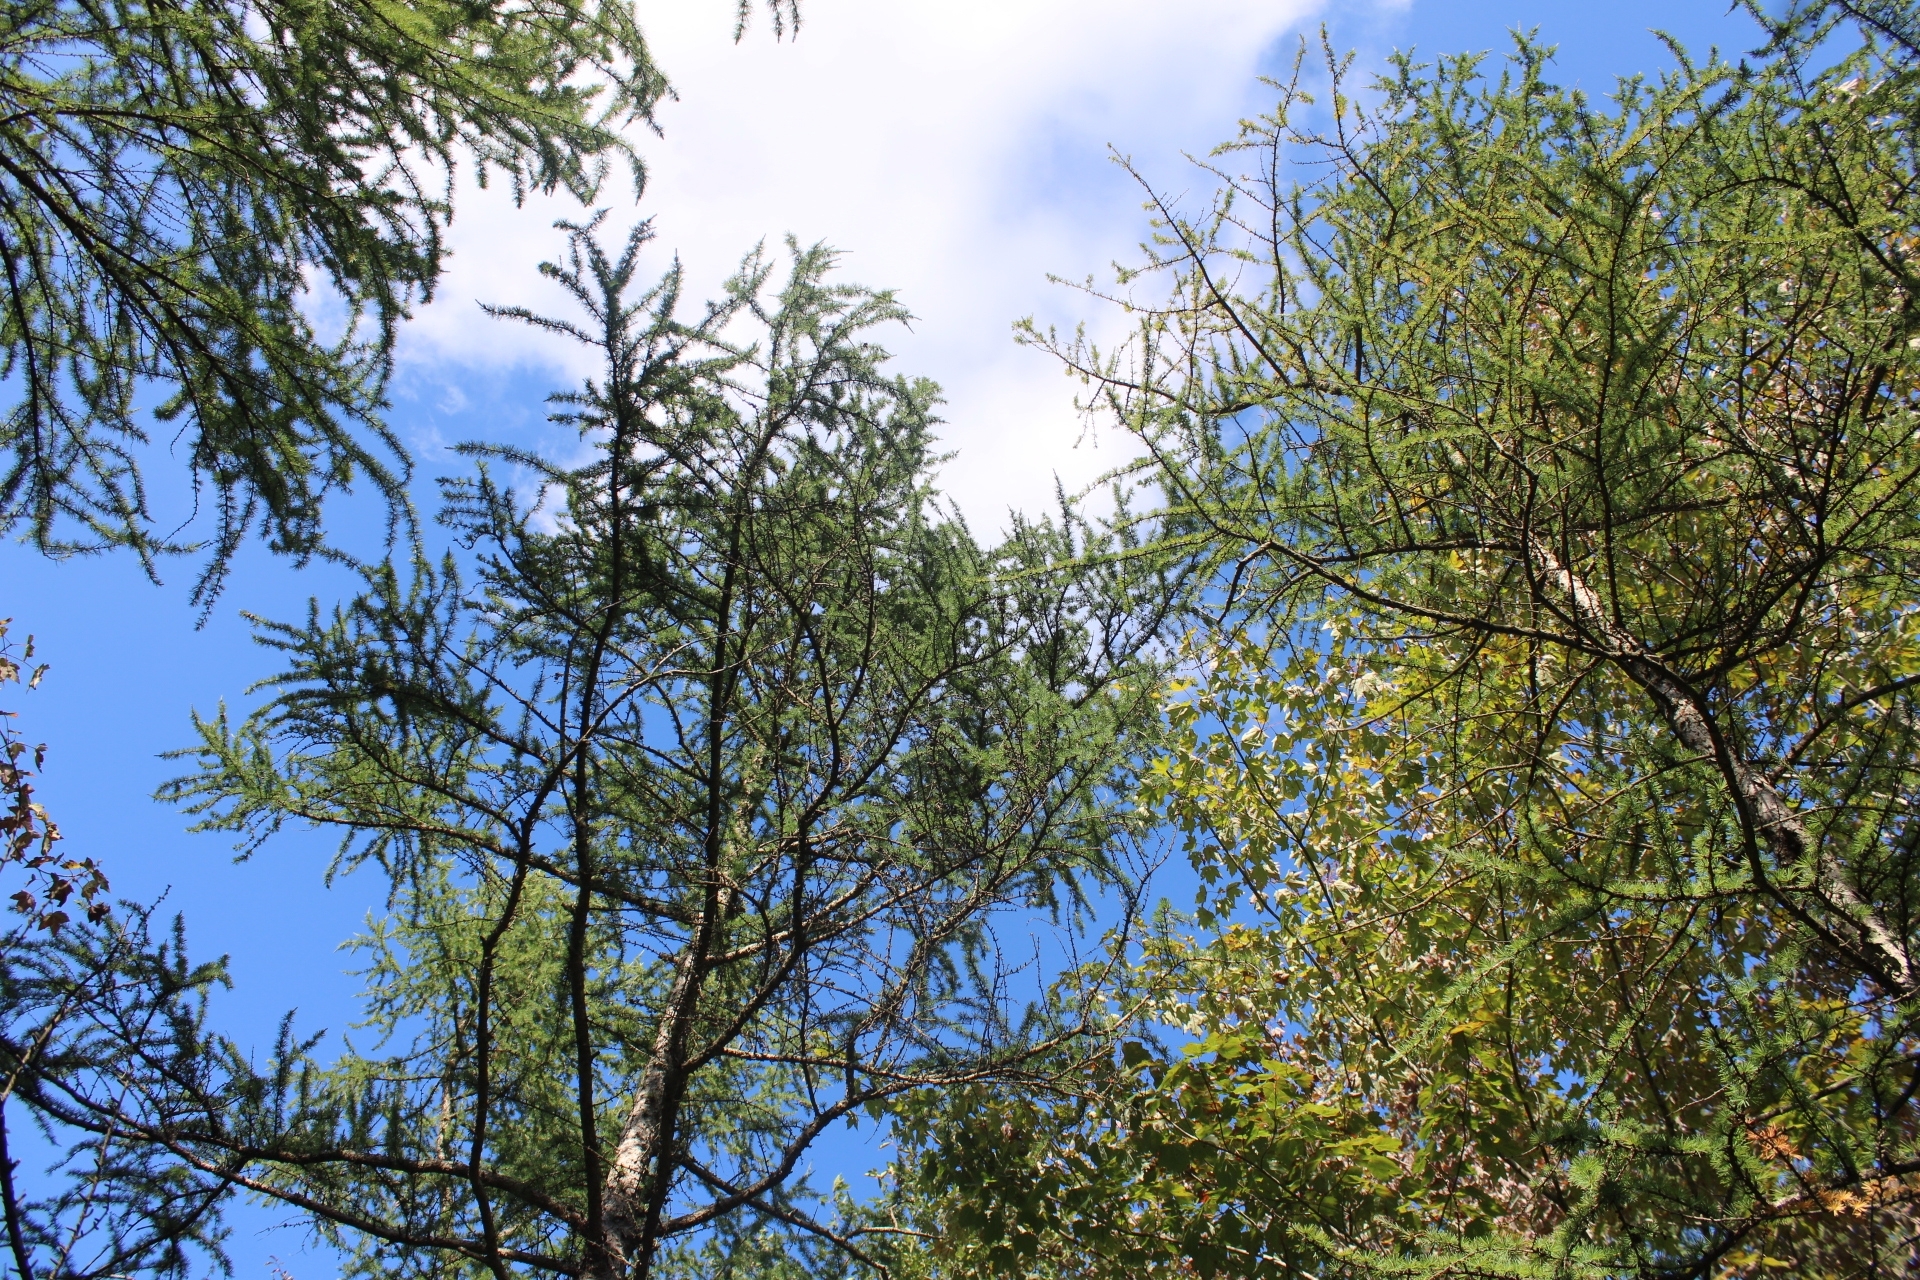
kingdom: Plantae
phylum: Tracheophyta
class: Pinopsida
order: Pinales
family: Pinaceae
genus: Larix
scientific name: Larix laricina
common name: American larch
